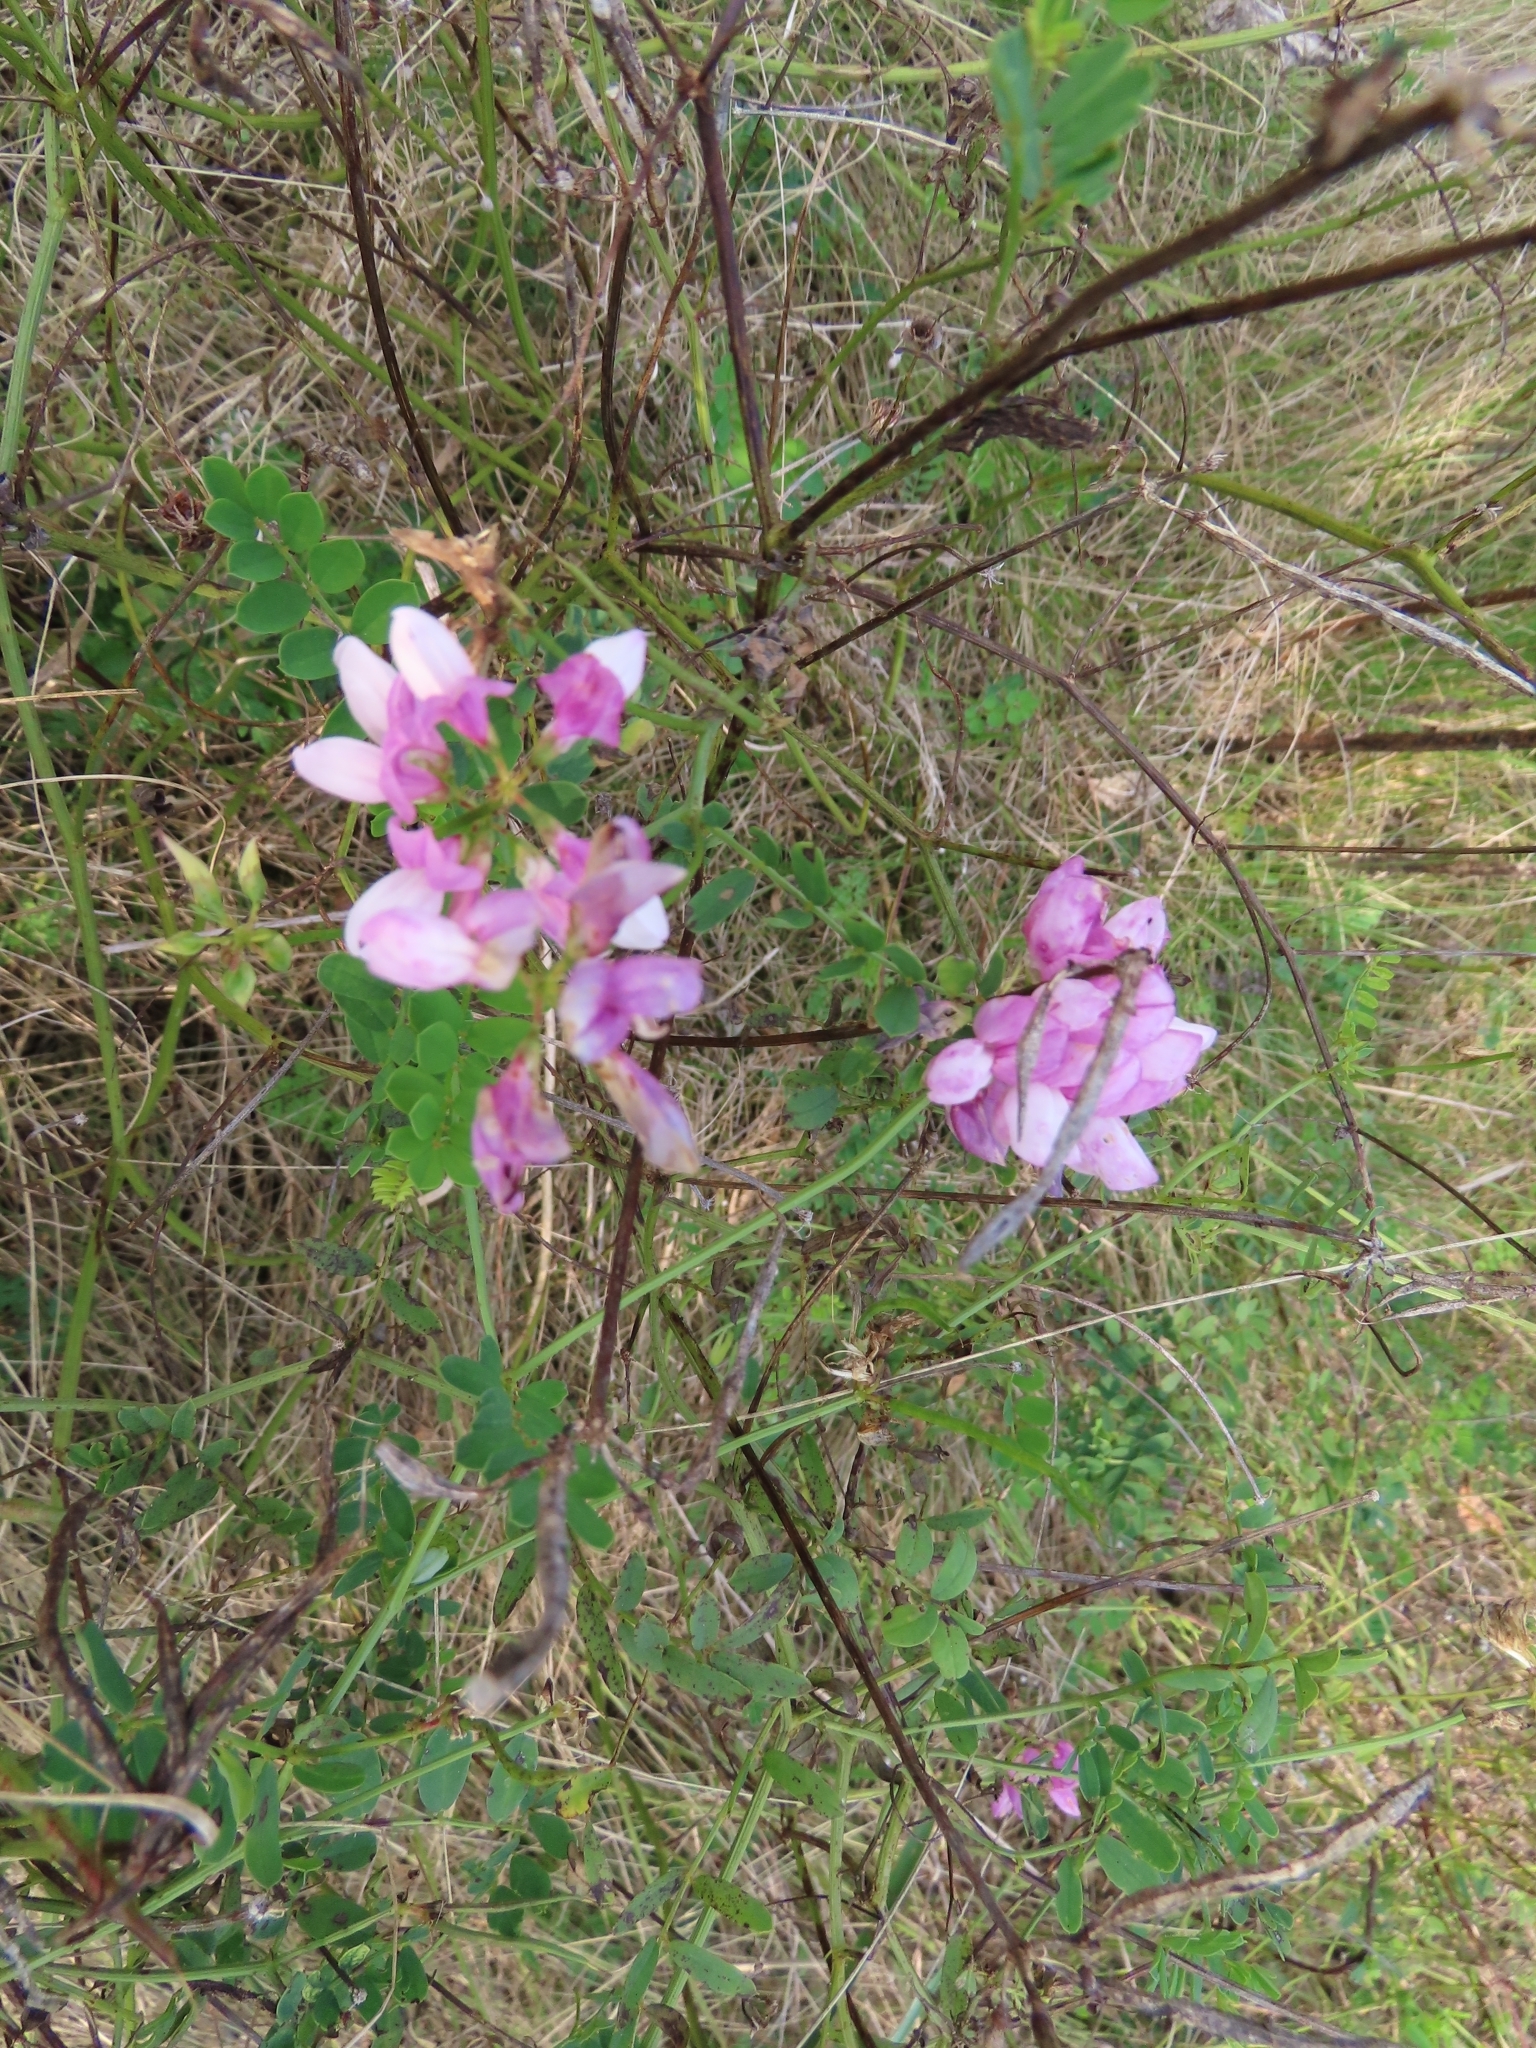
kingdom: Plantae
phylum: Tracheophyta
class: Magnoliopsida
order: Fabales
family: Fabaceae
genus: Coronilla
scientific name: Coronilla varia
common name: Crownvetch
